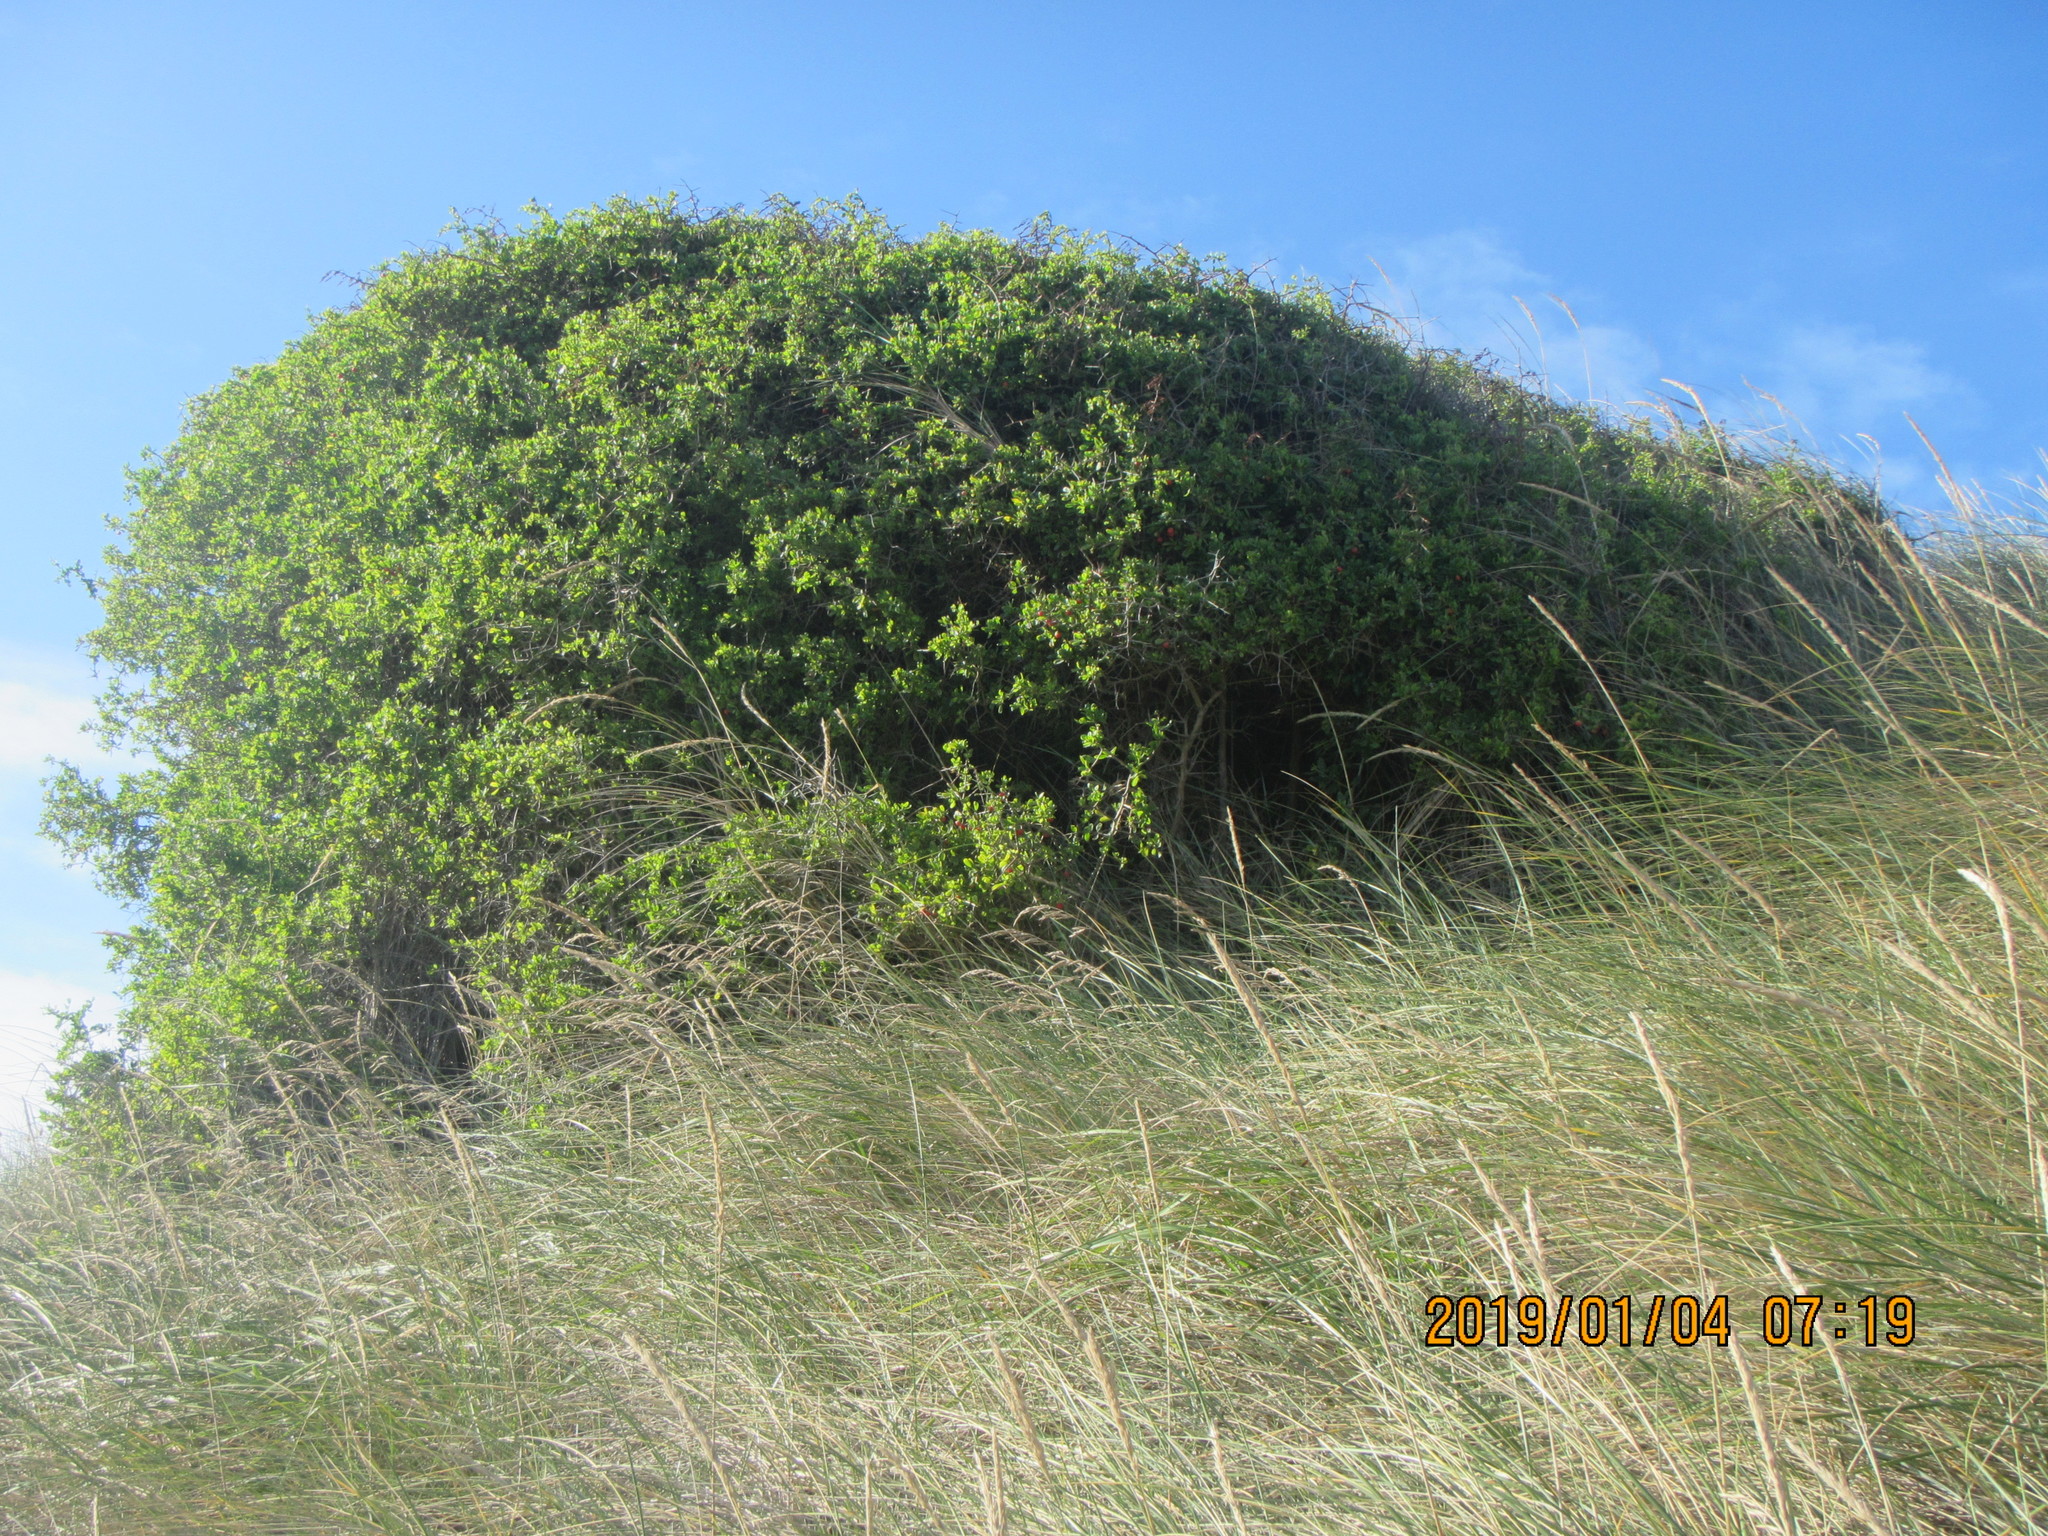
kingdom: Plantae
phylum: Tracheophyta
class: Magnoliopsida
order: Solanales
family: Solanaceae
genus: Lycium
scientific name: Lycium ferocissimum
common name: African boxthorn
